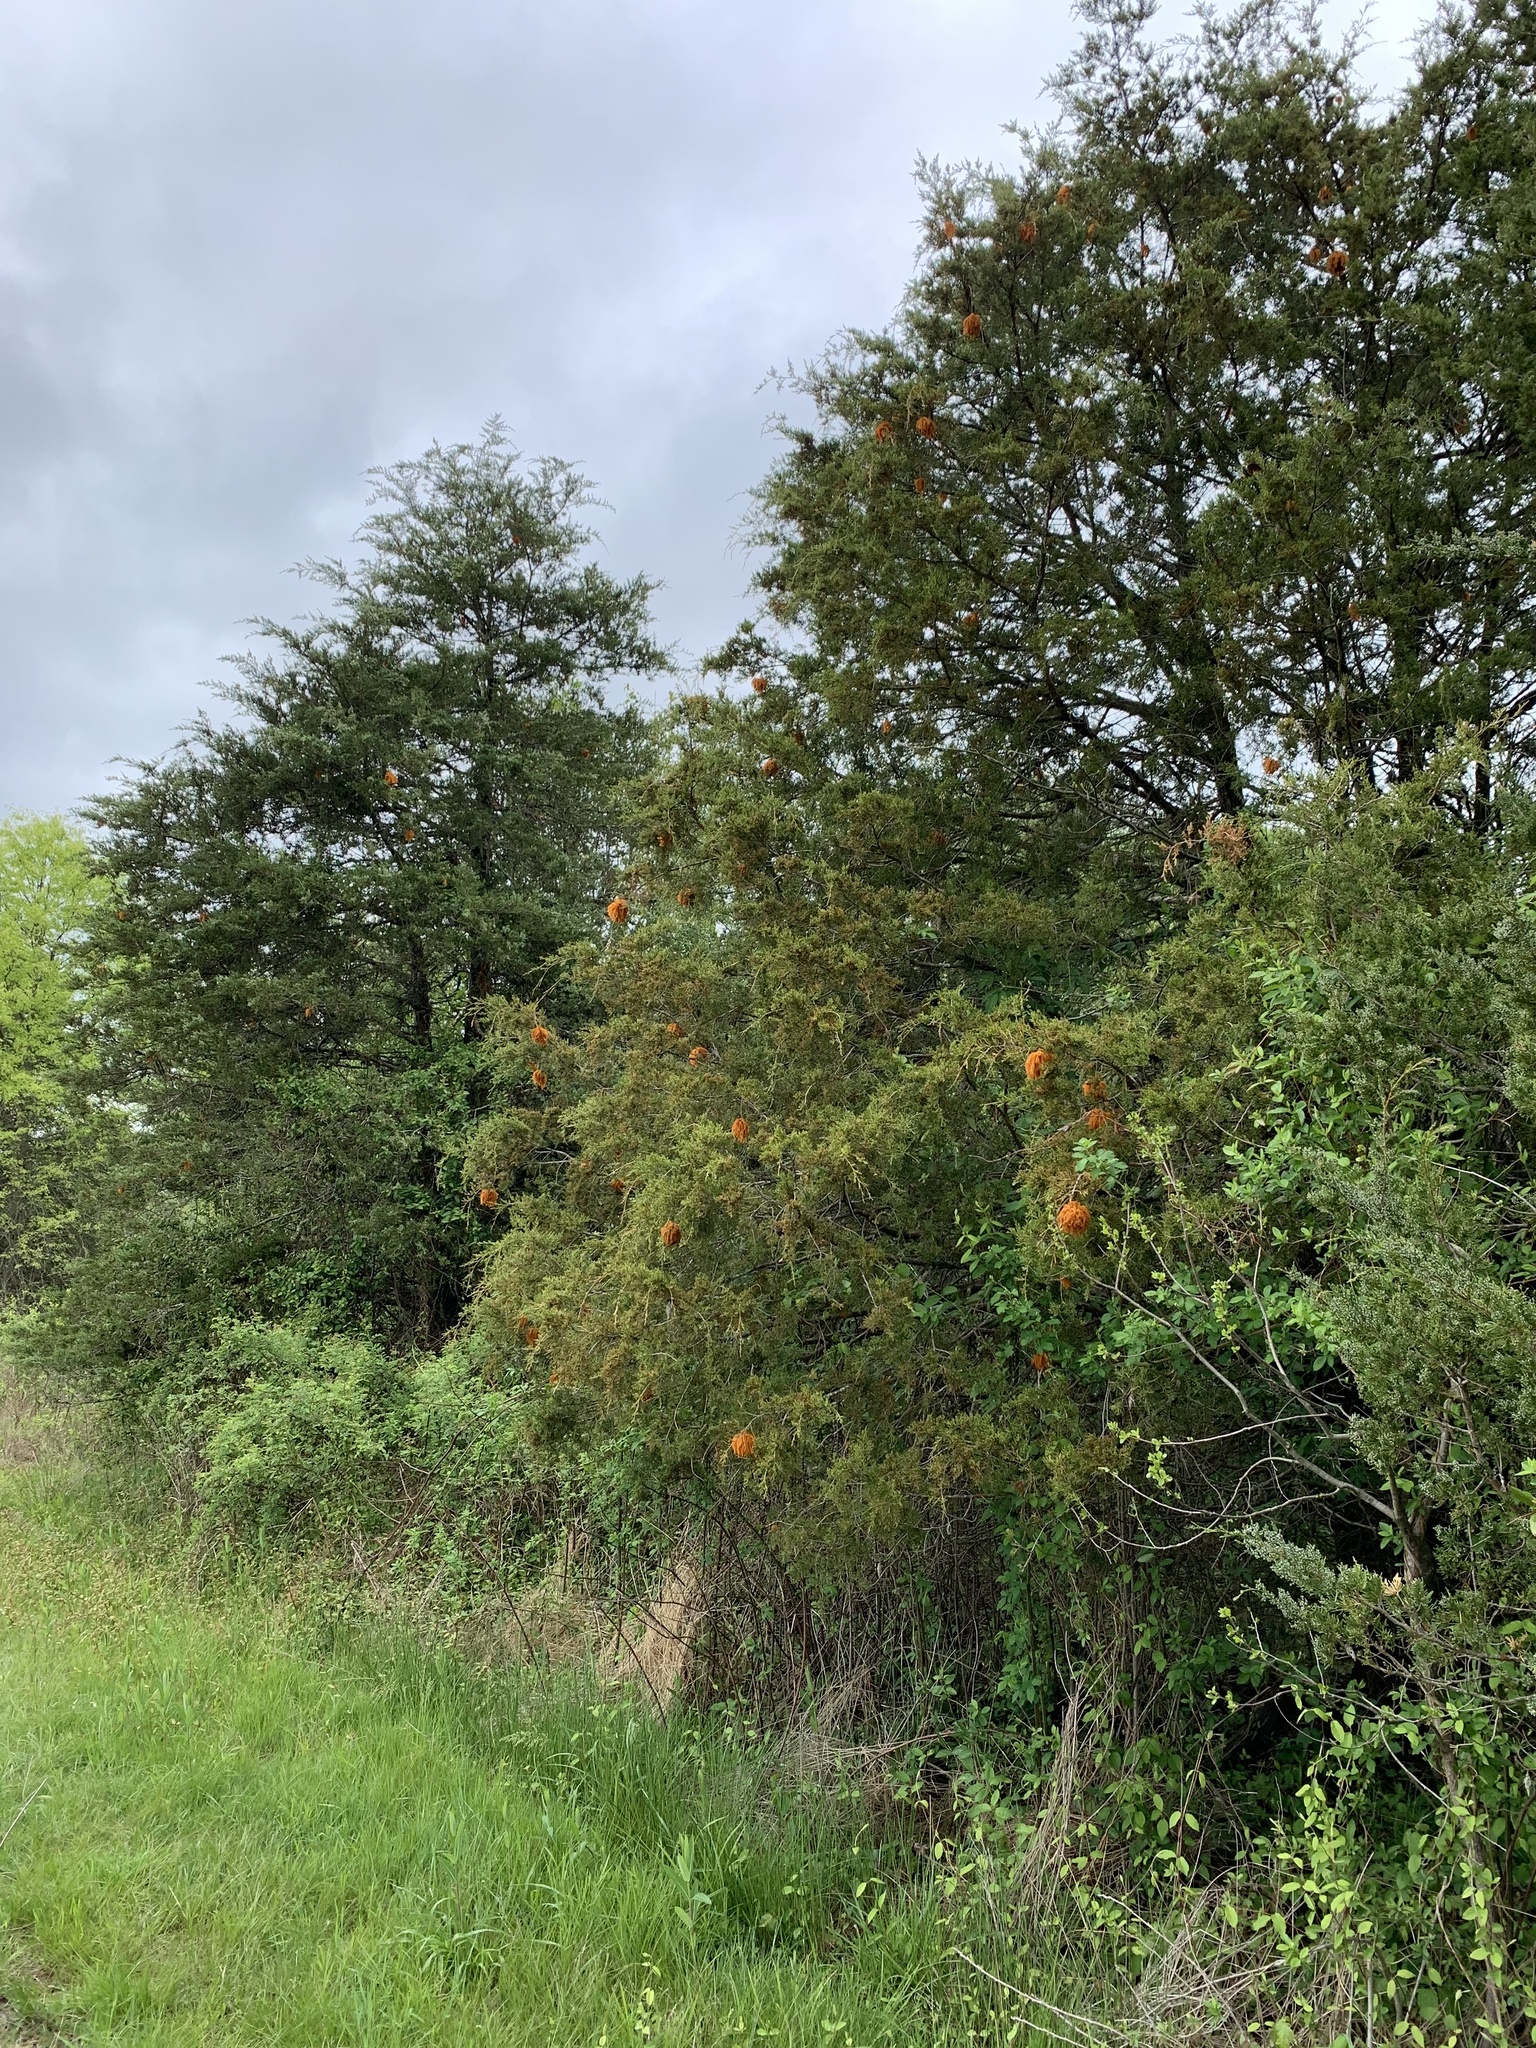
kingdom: Fungi
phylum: Basidiomycota
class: Pucciniomycetes
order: Pucciniales
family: Gymnosporangiaceae
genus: Gymnosporangium
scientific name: Gymnosporangium juniperi-virginianae
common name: Juniper-apple rust
